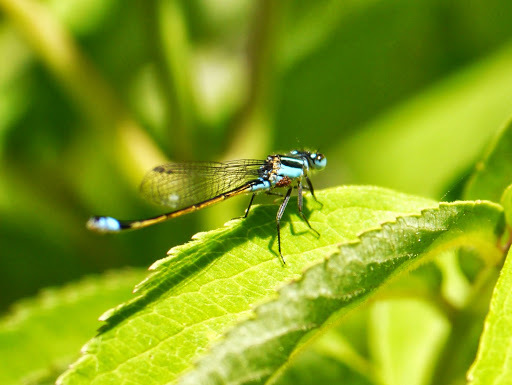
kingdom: Animalia
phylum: Arthropoda
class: Insecta
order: Odonata
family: Coenagrionidae
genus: Ischnura
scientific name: Ischnura ramburii
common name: Rambur's forktail
